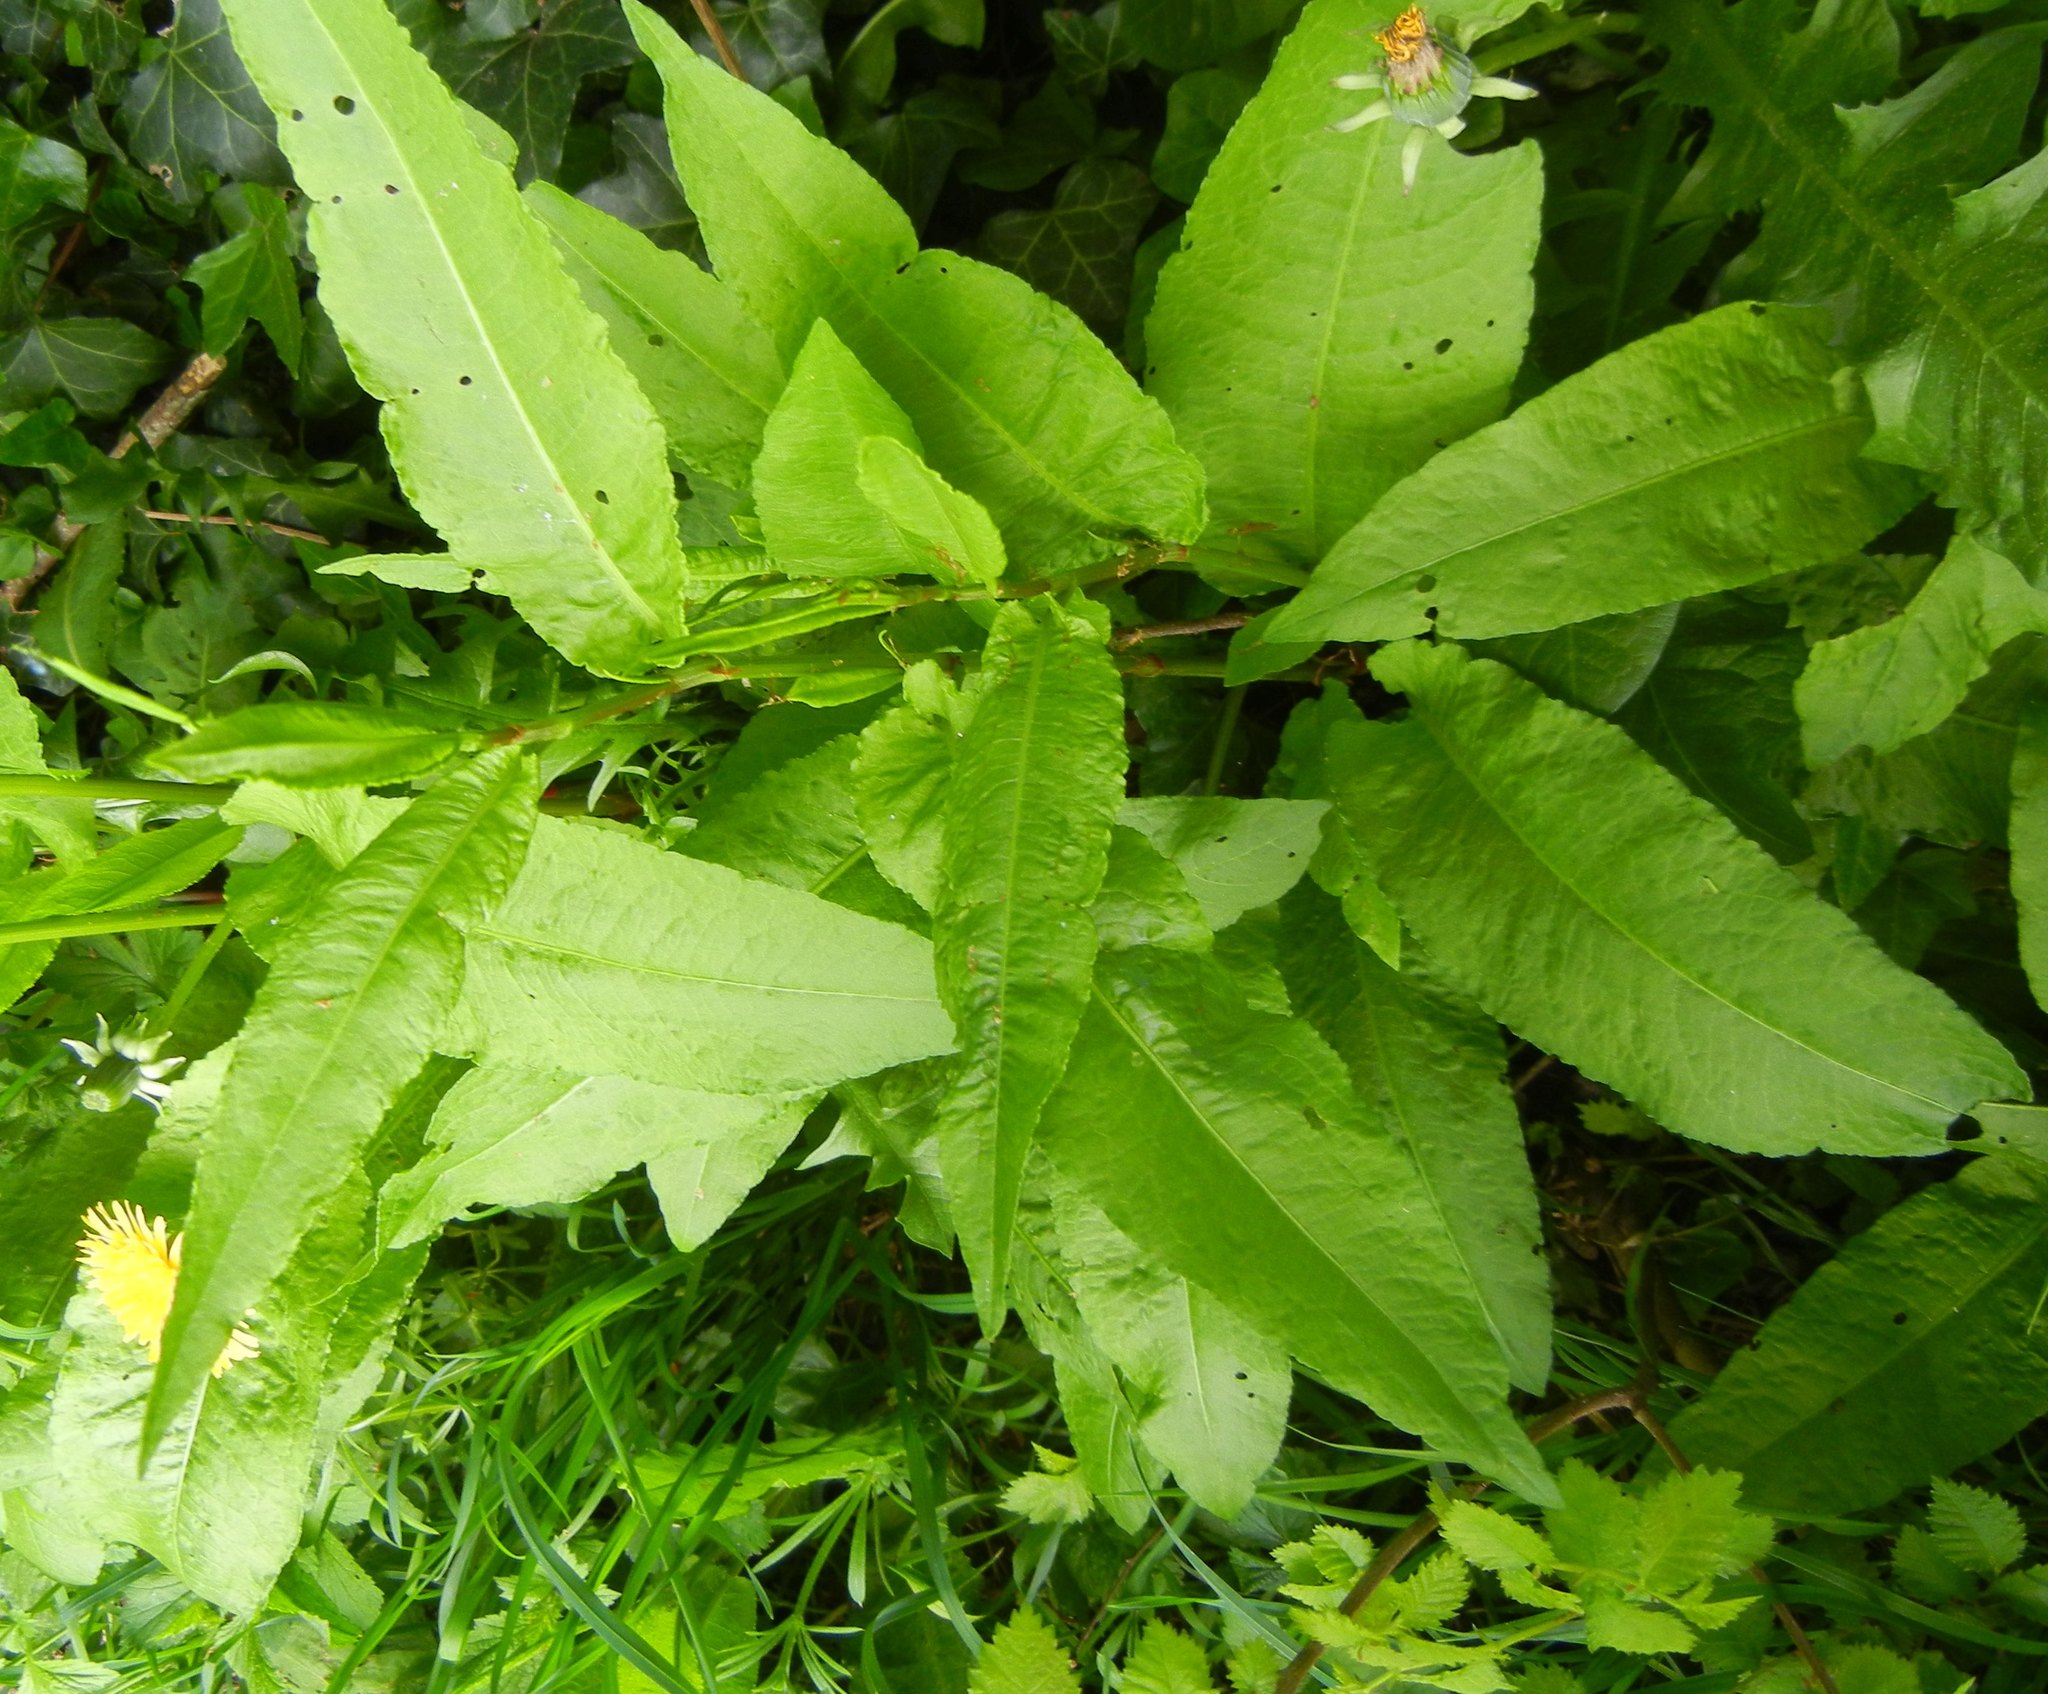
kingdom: Plantae
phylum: Tracheophyta
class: Magnoliopsida
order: Caryophyllales
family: Polygonaceae
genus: Rumex
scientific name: Rumex sanguineus
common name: Wood dock
